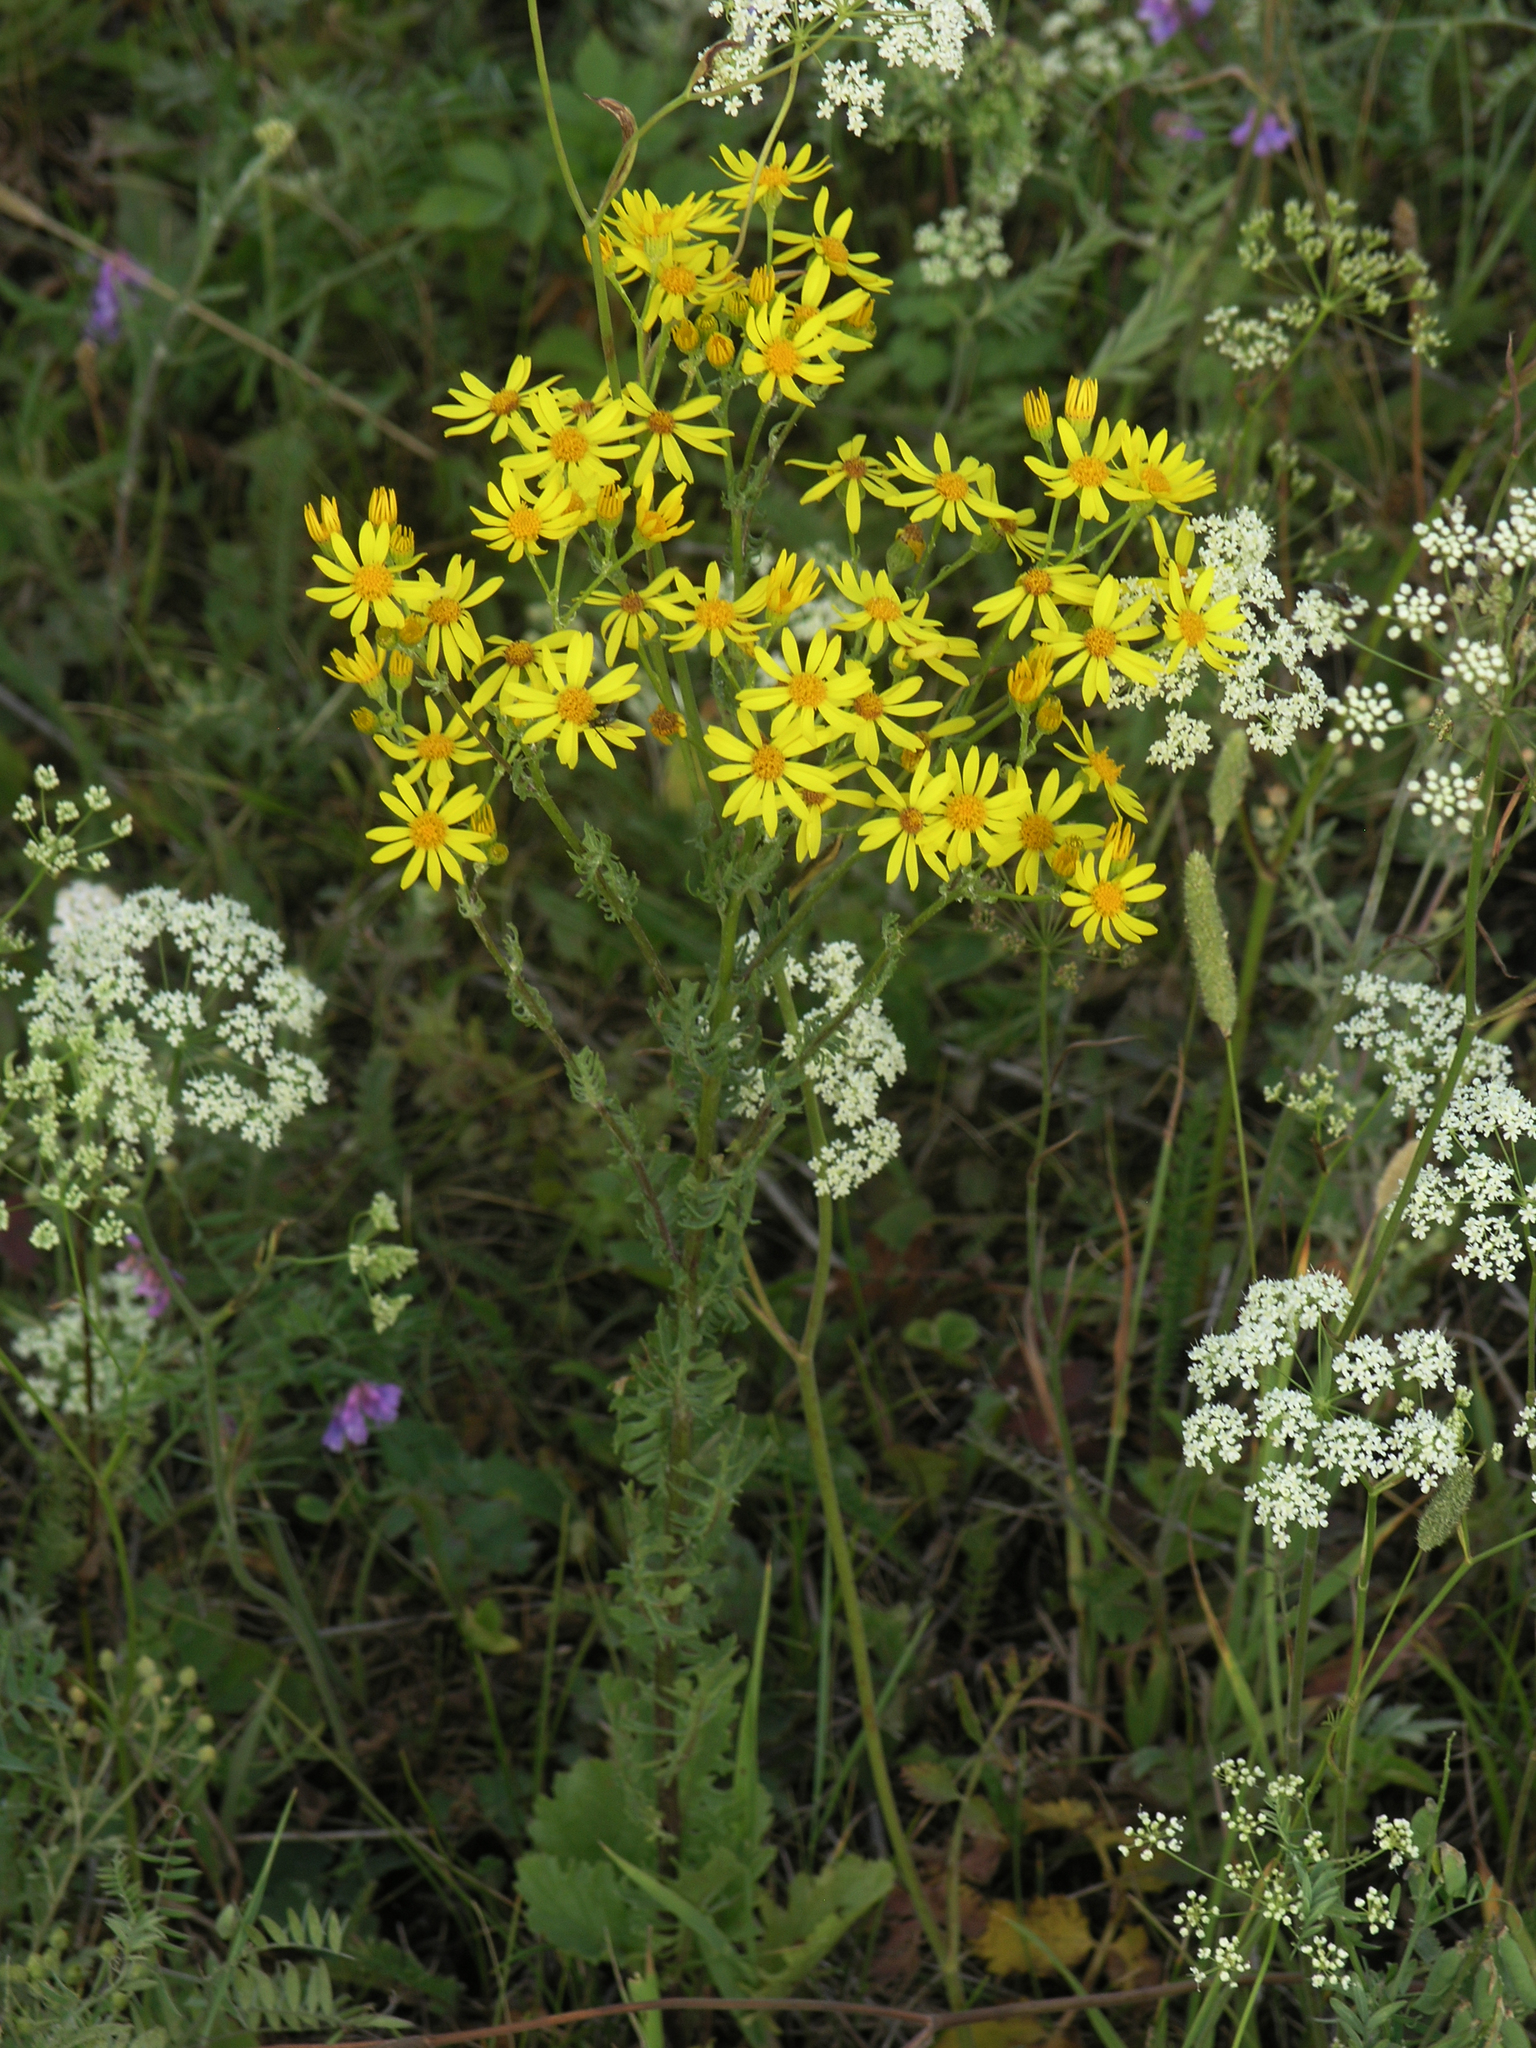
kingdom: Plantae
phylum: Tracheophyta
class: Magnoliopsida
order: Asterales
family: Asteraceae
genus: Jacobaea
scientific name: Jacobaea vulgaris
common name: Stinking willie
